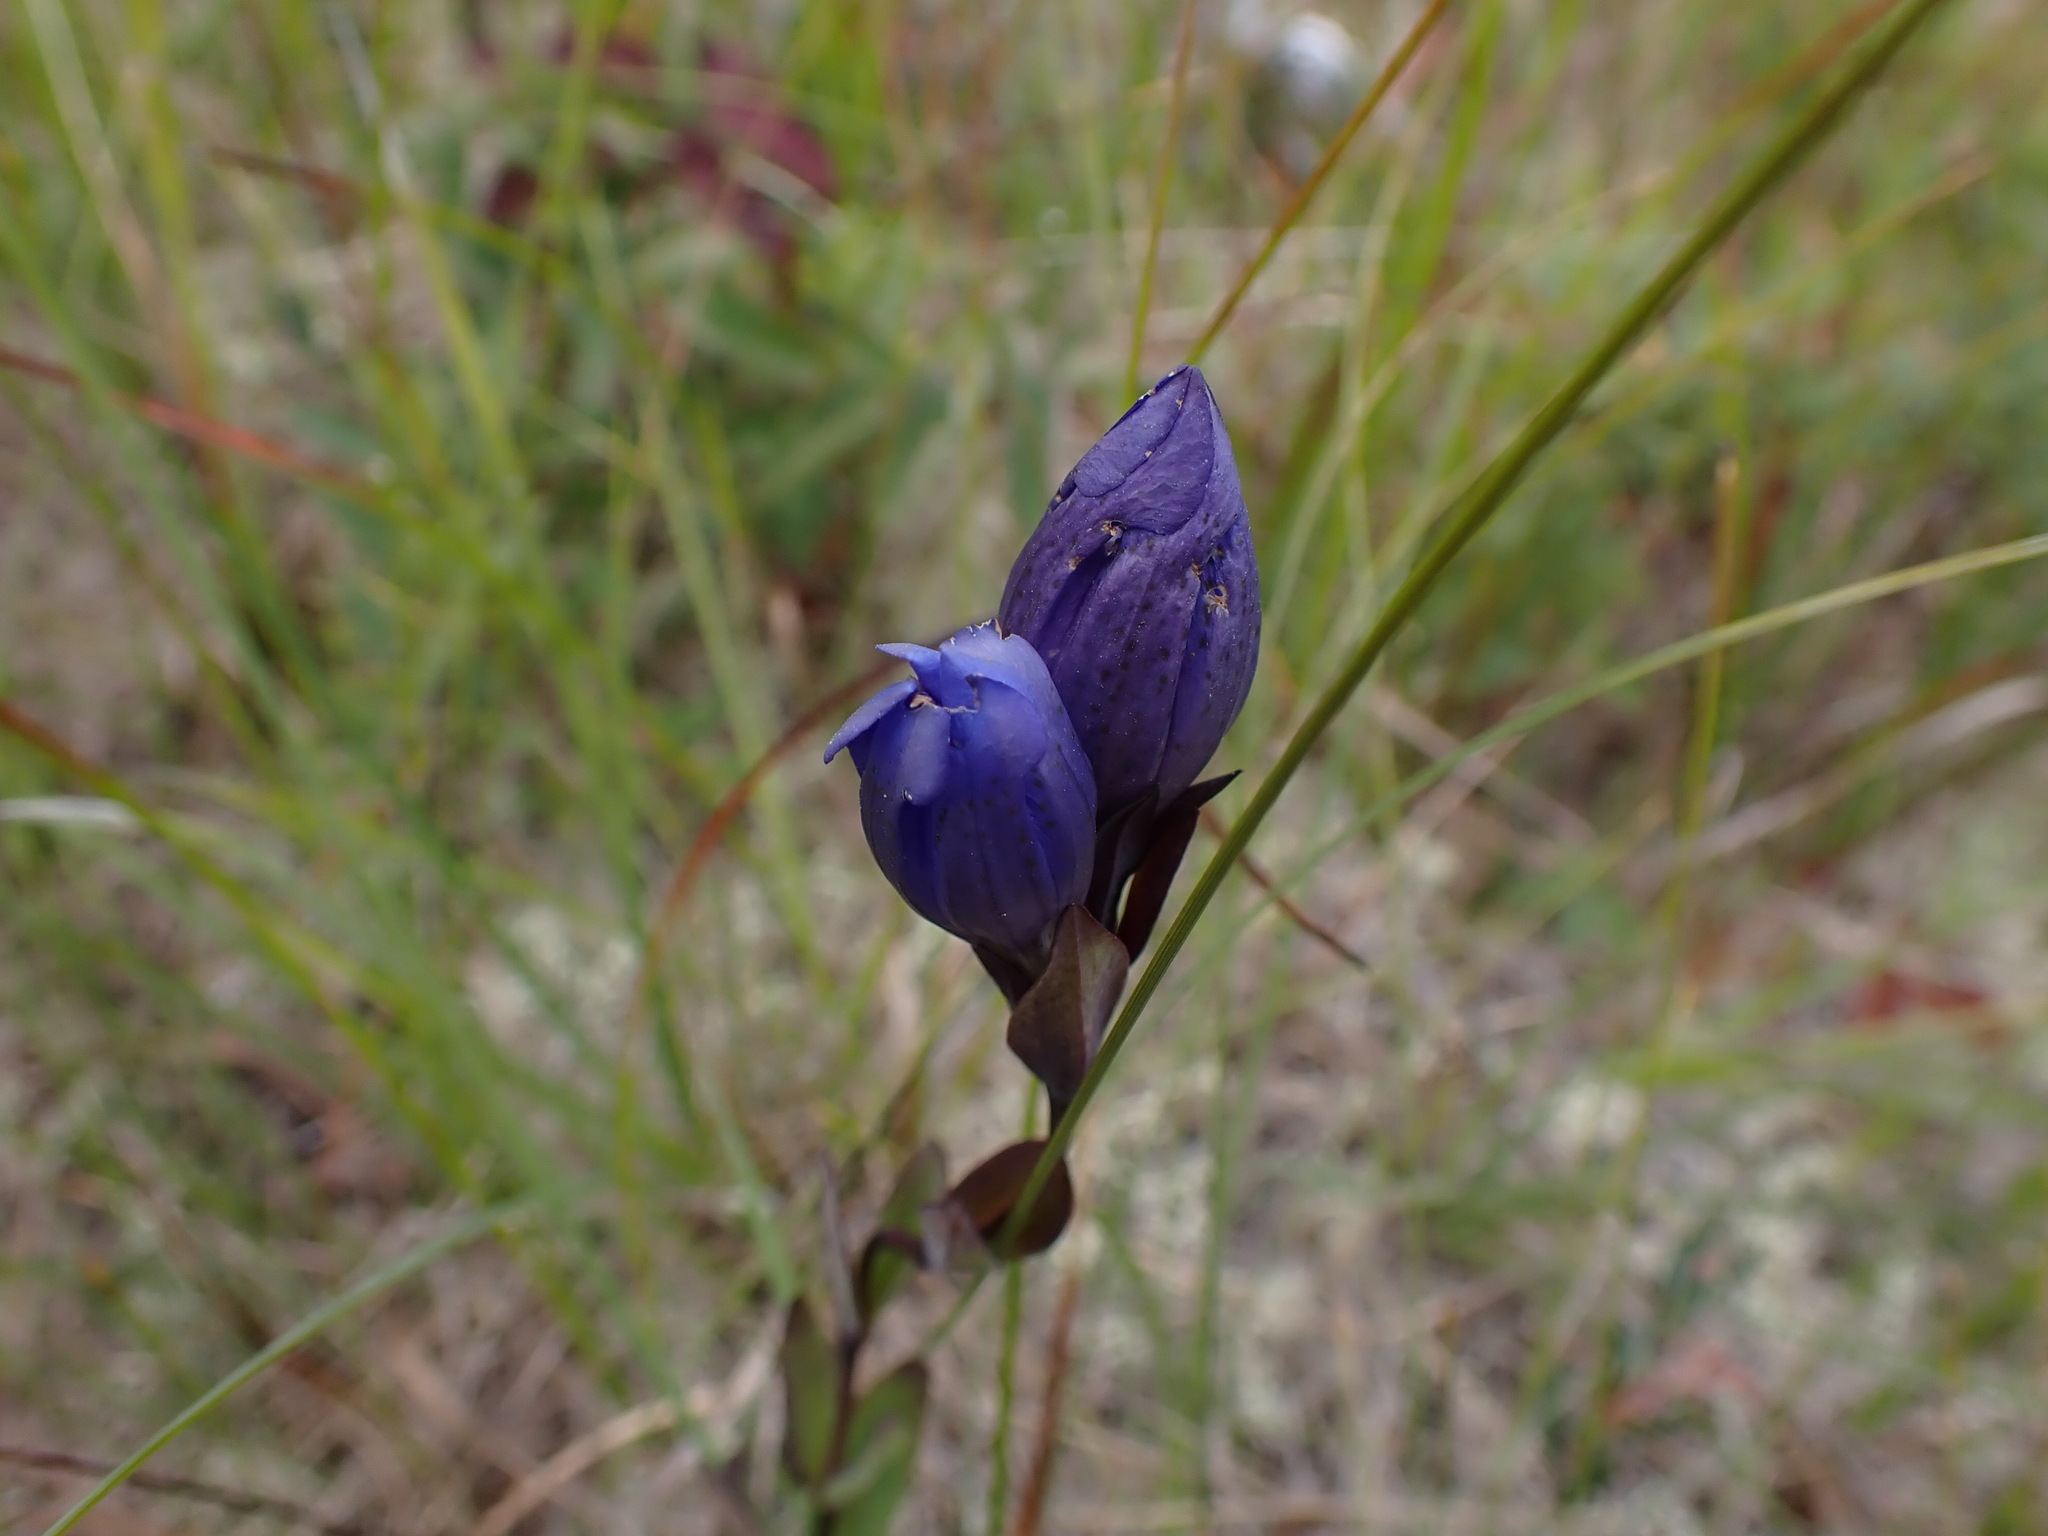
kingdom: Plantae
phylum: Tracheophyta
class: Magnoliopsida
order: Gentianales
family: Gentianaceae
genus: Gentiana
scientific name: Gentiana sceptrum
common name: Pacific gentian
